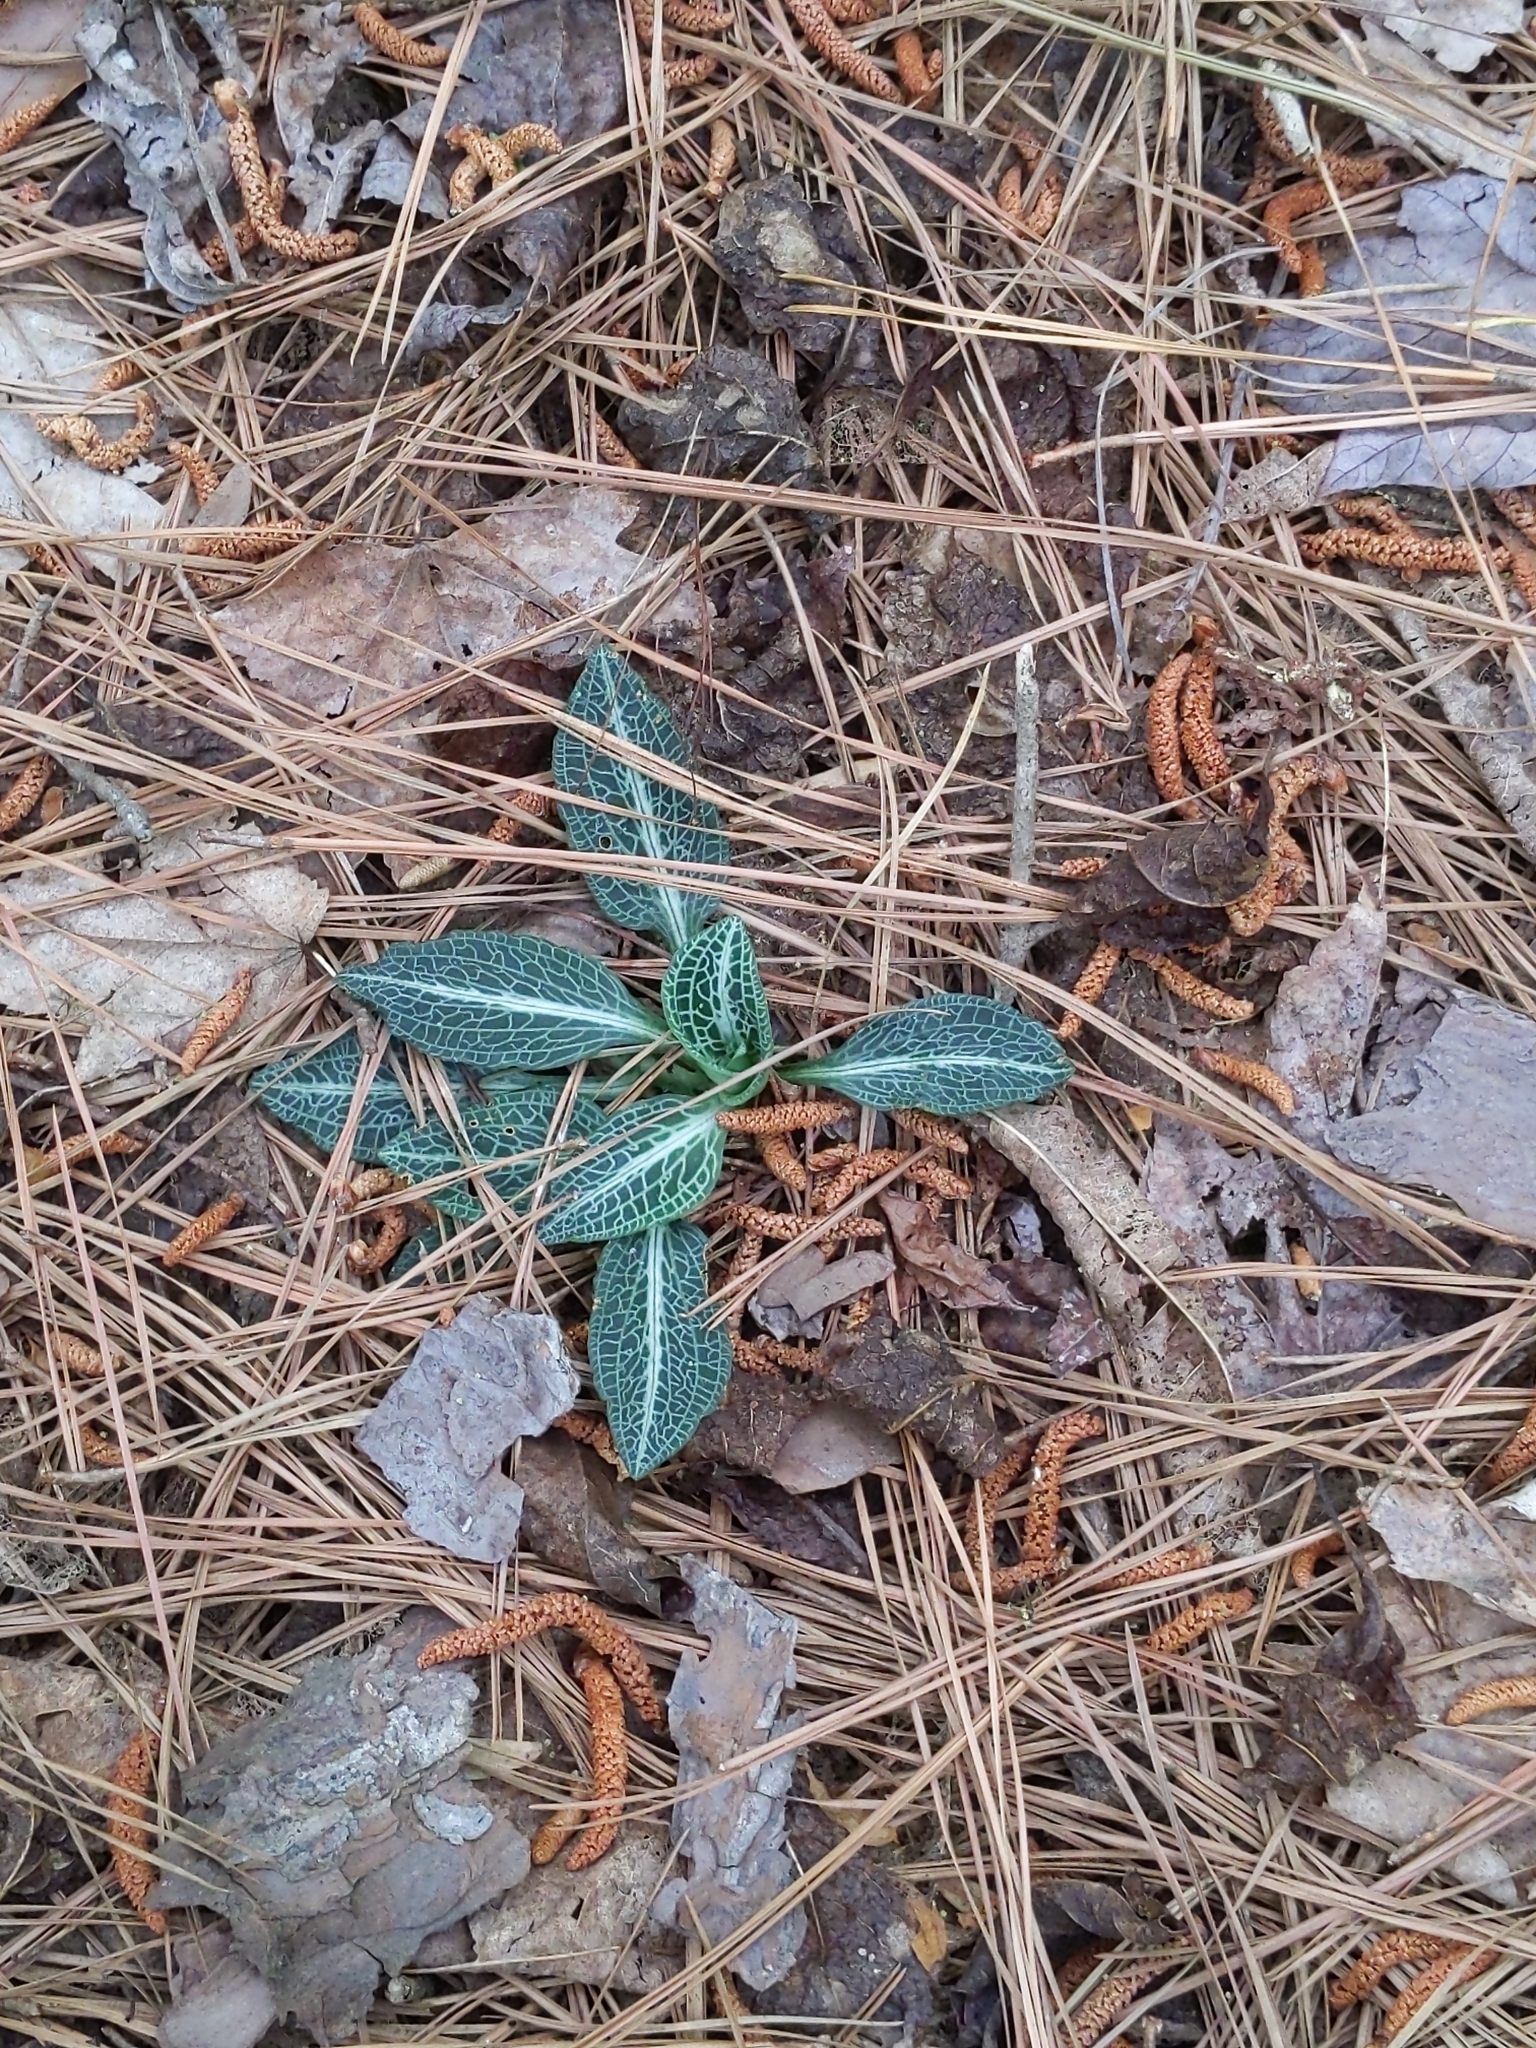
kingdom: Plantae
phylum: Tracheophyta
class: Liliopsida
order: Asparagales
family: Orchidaceae
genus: Goodyera
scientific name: Goodyera pubescens
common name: Downy rattlesnake-plantain
